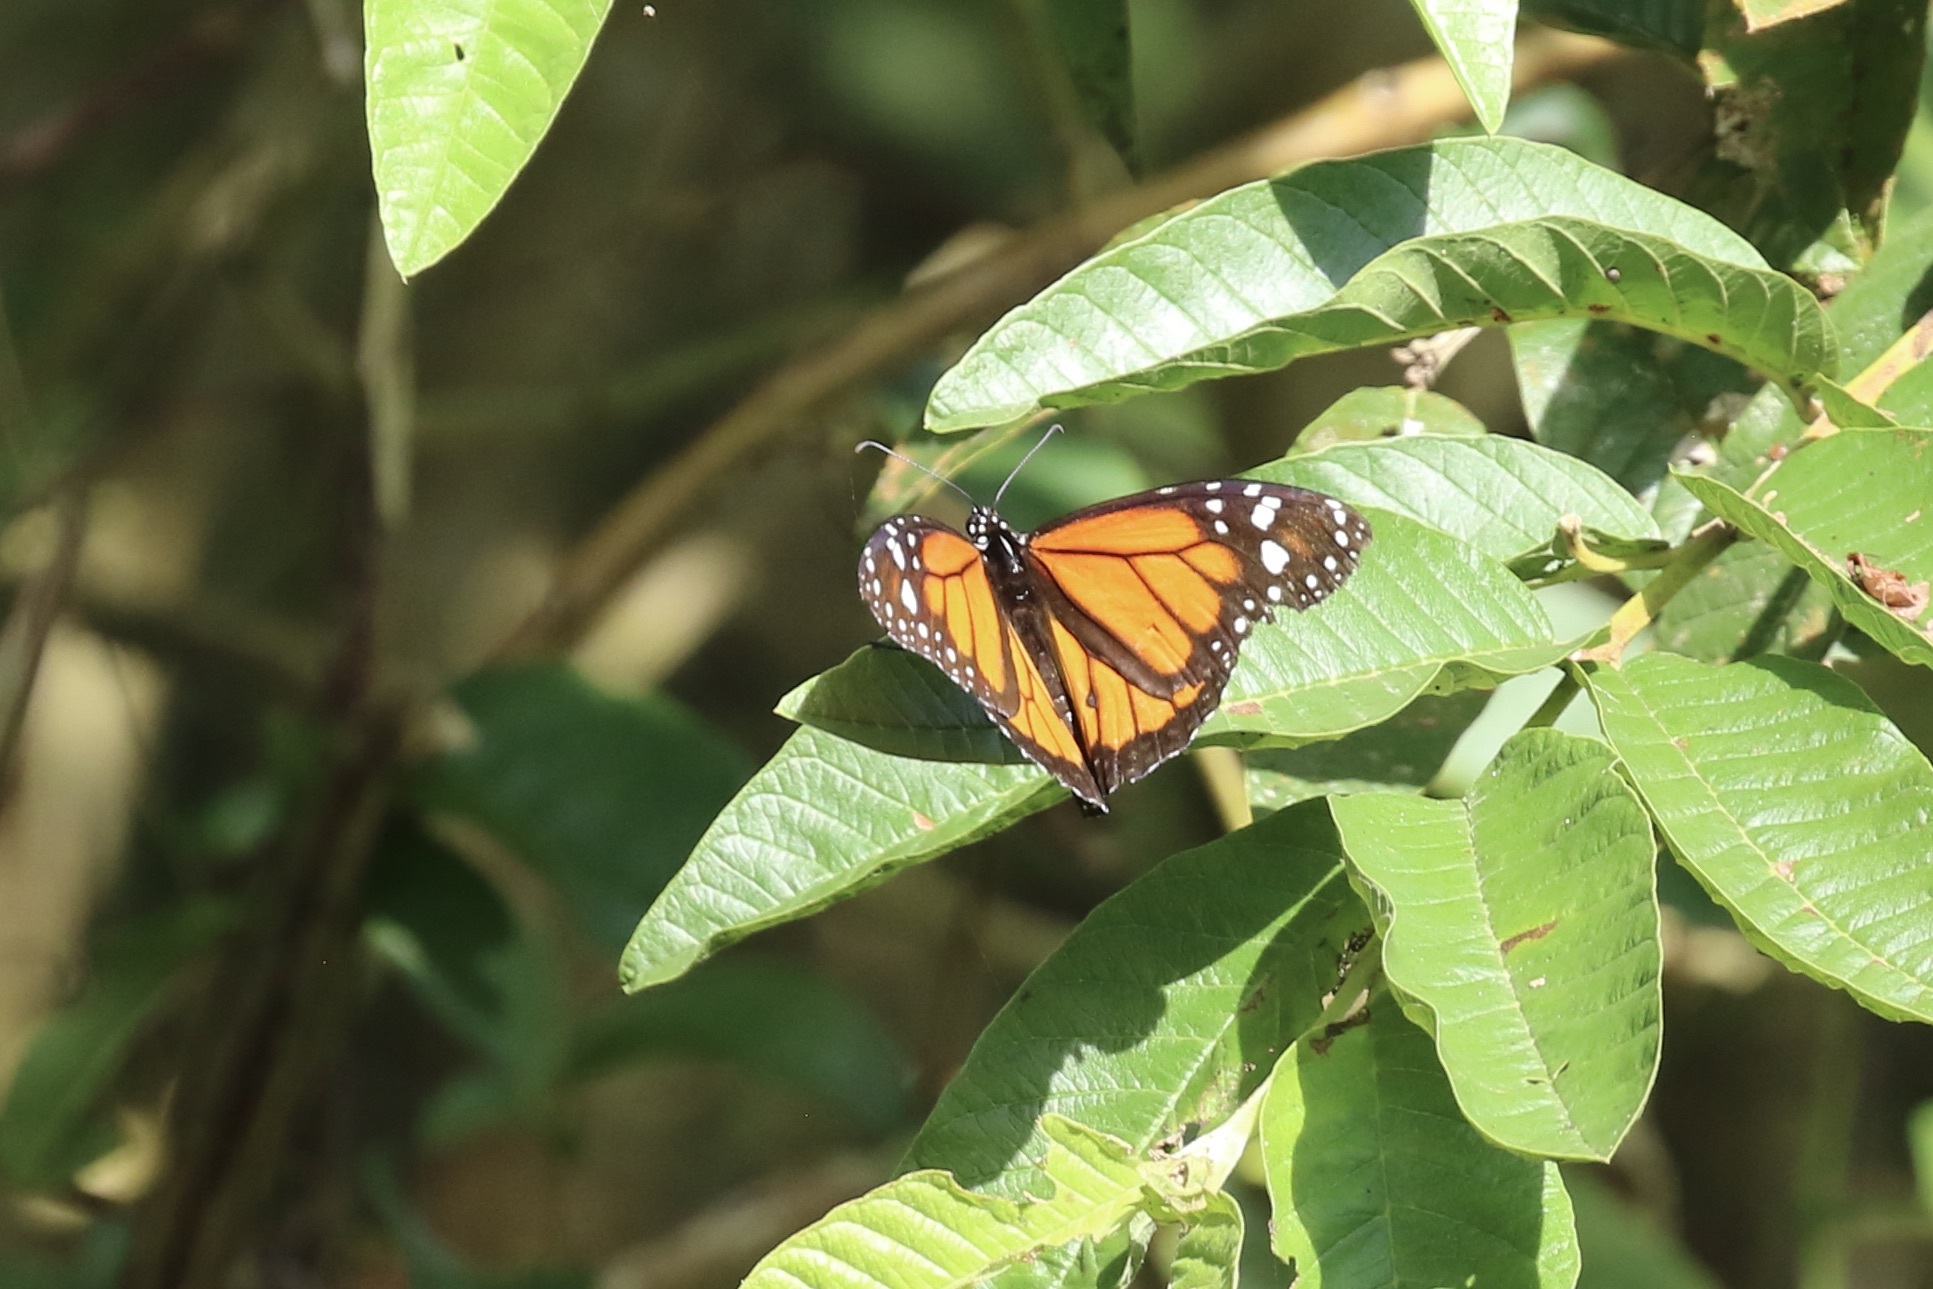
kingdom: Animalia
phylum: Arthropoda
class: Insecta
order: Lepidoptera
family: Nymphalidae
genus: Danaus
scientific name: Danaus plexippus
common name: Monarch
